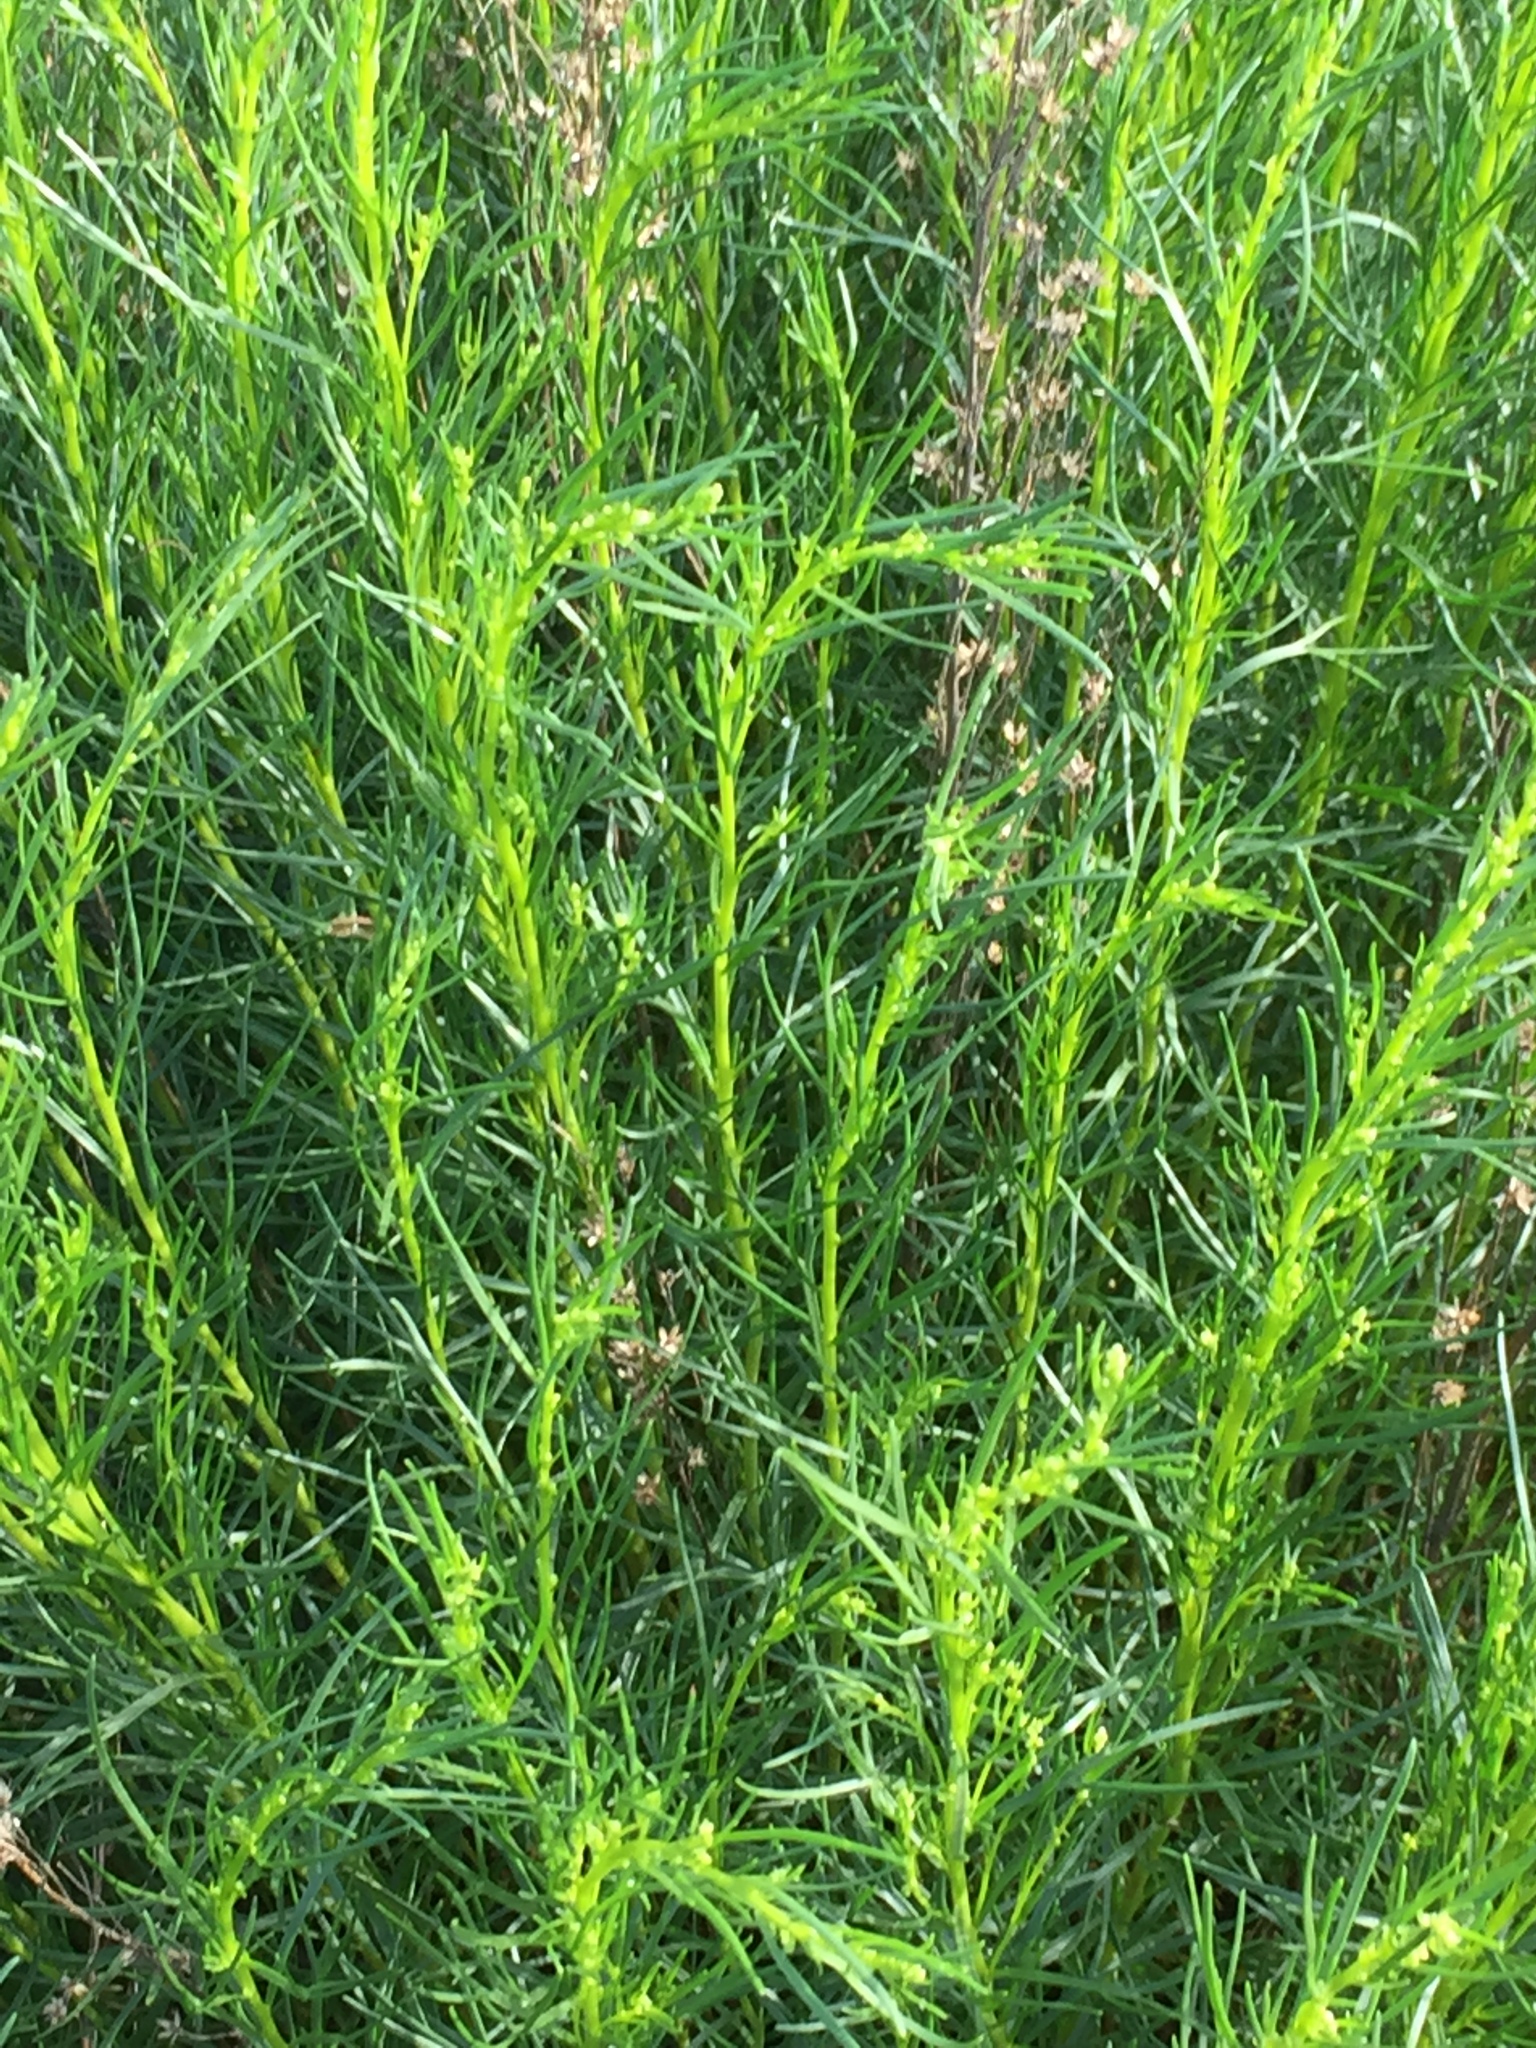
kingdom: Plantae
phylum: Tracheophyta
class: Magnoliopsida
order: Asterales
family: Asteraceae
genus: Artemisia
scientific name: Artemisia salsoloides
